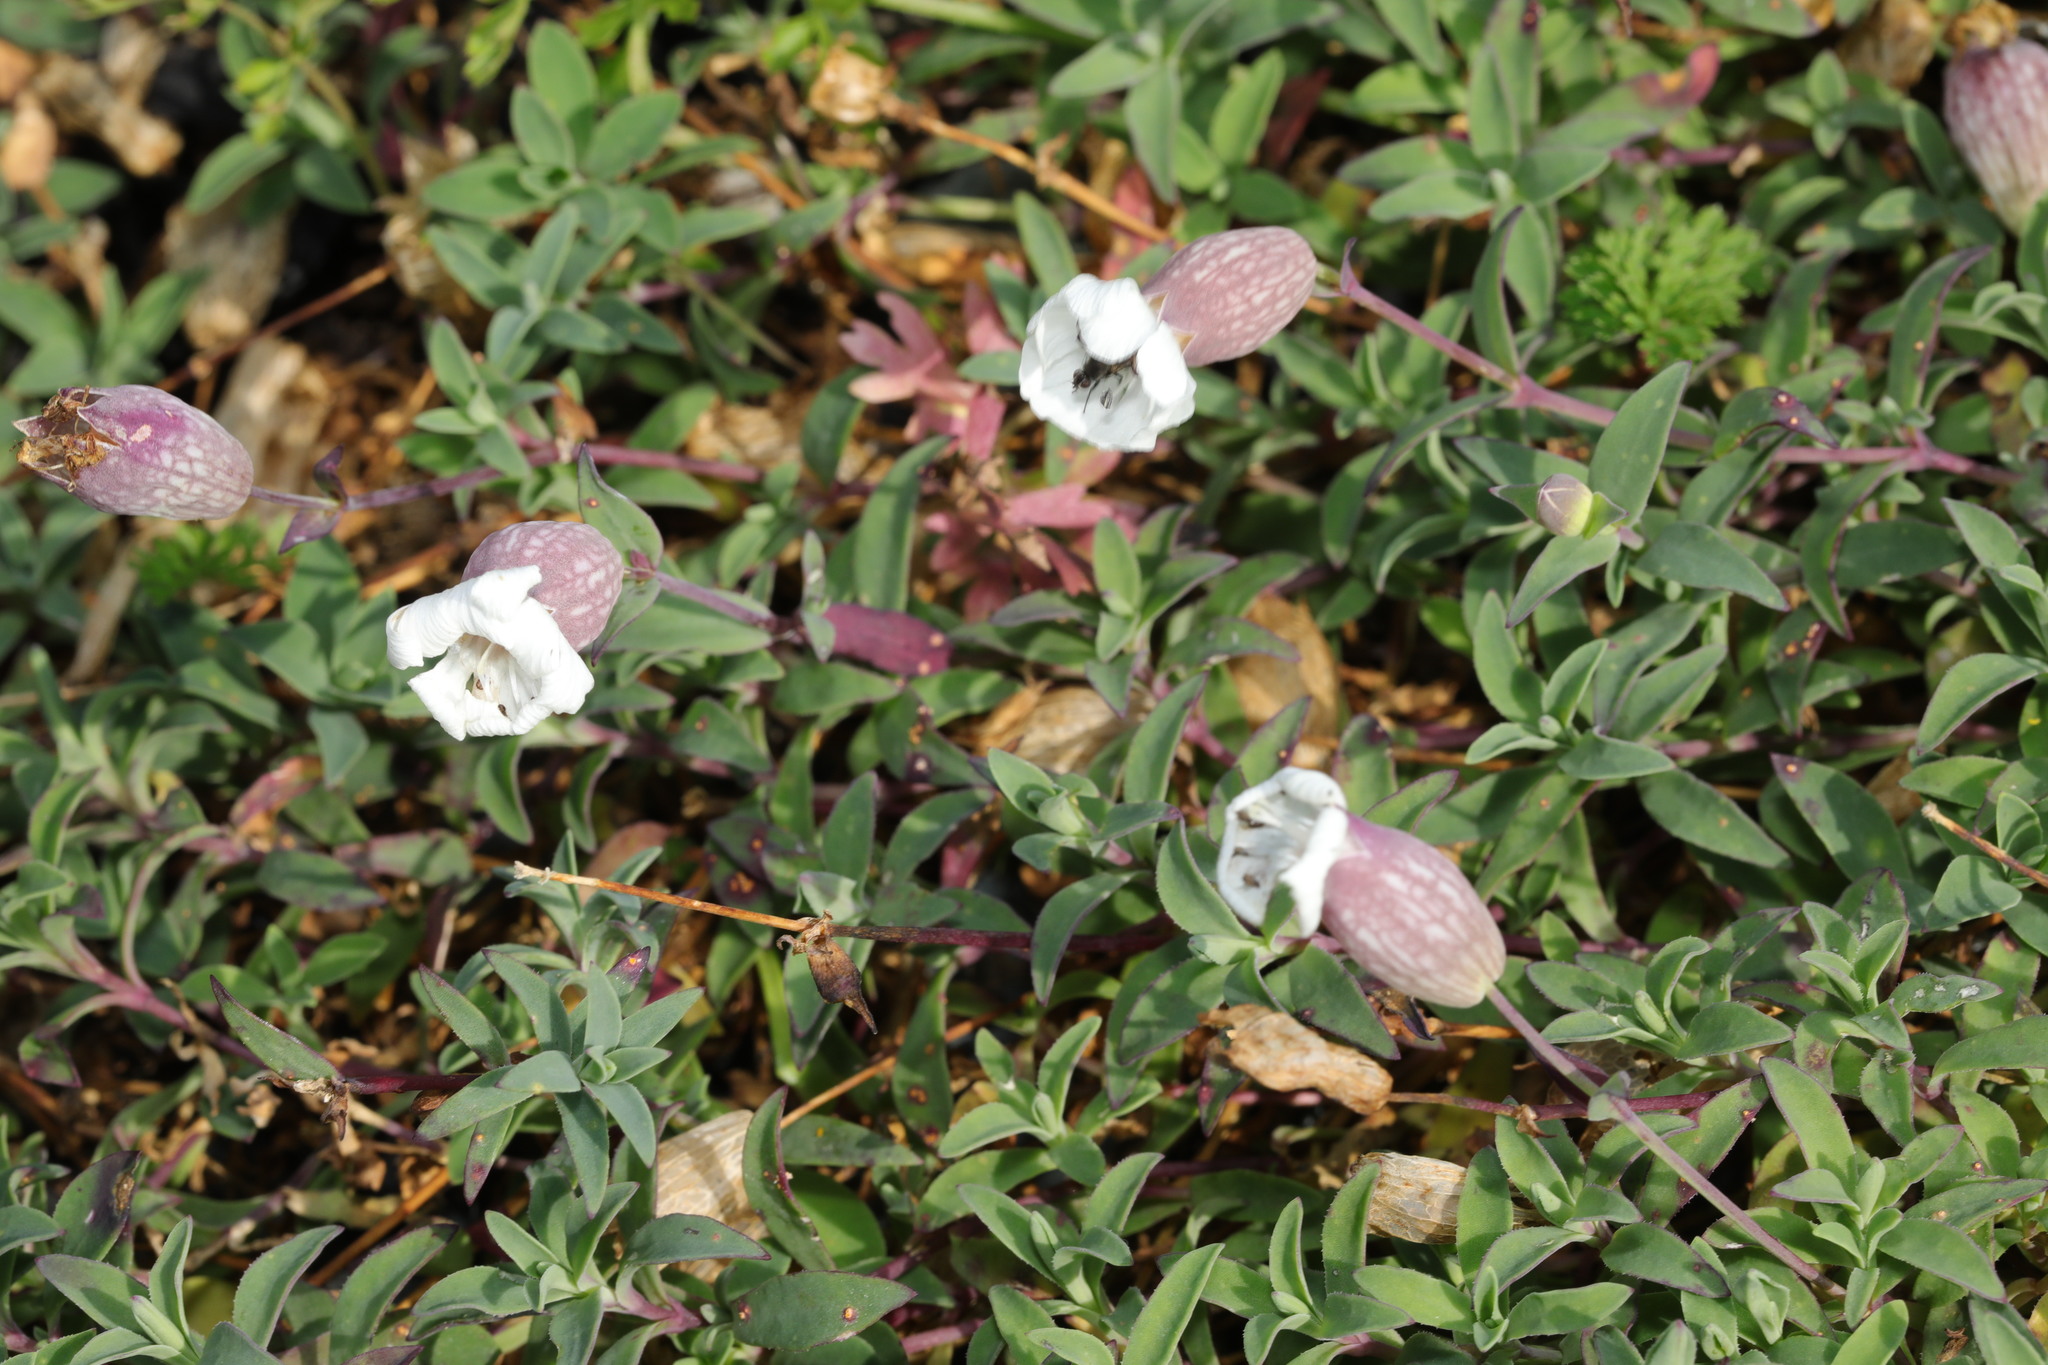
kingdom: Plantae
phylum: Tracheophyta
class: Magnoliopsida
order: Caryophyllales
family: Caryophyllaceae
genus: Silene
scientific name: Silene uniflora
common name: Sea campion
